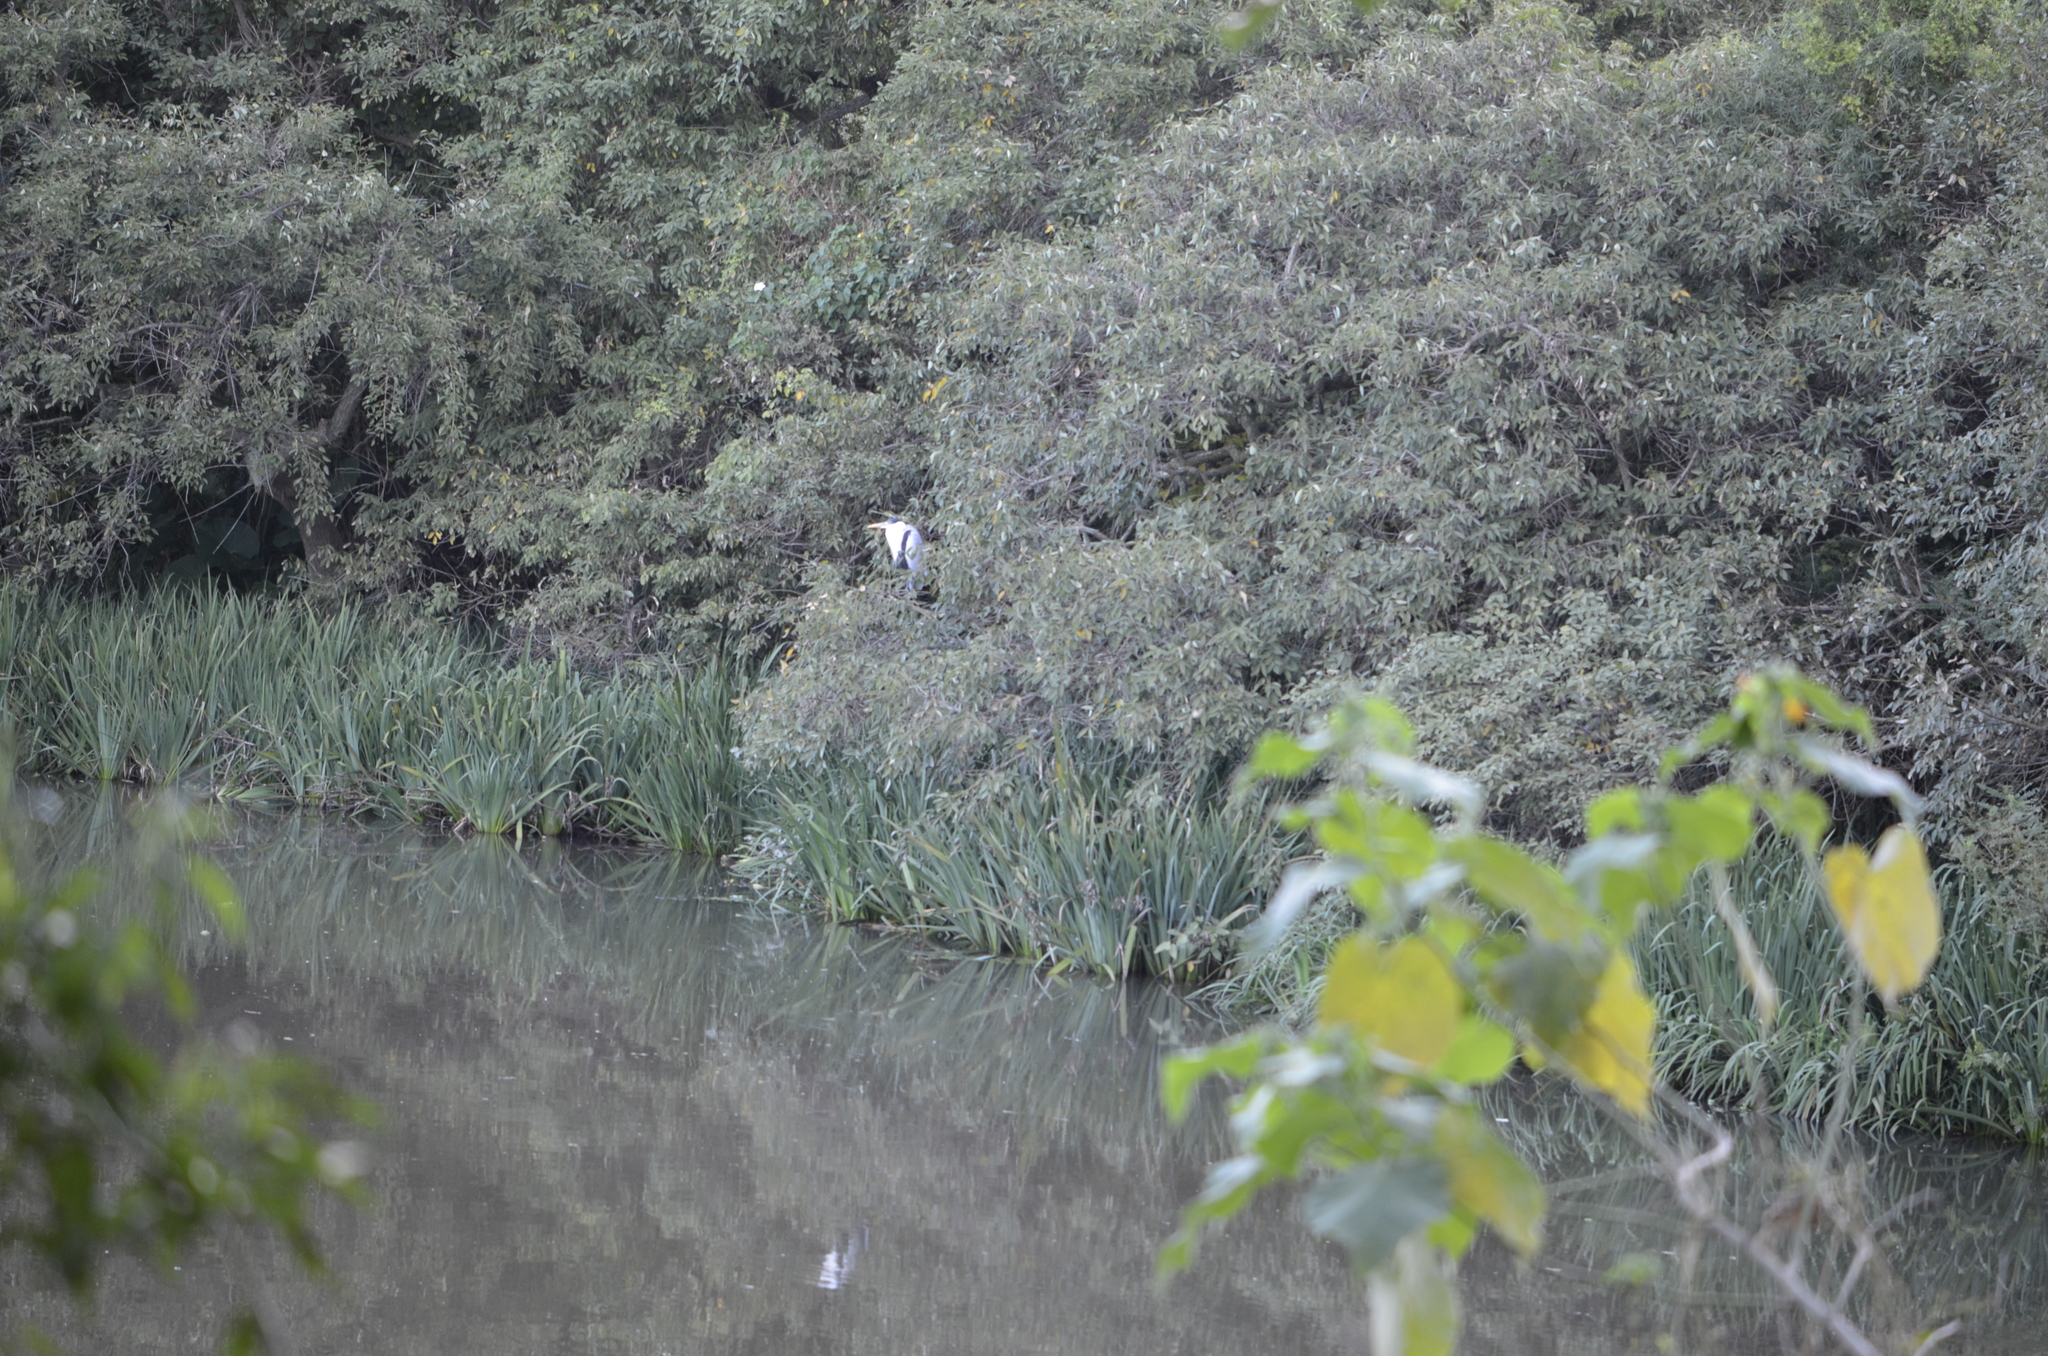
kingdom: Animalia
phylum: Chordata
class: Aves
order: Pelecaniformes
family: Ardeidae
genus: Ardea
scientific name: Ardea cocoi
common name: Cocoi heron
